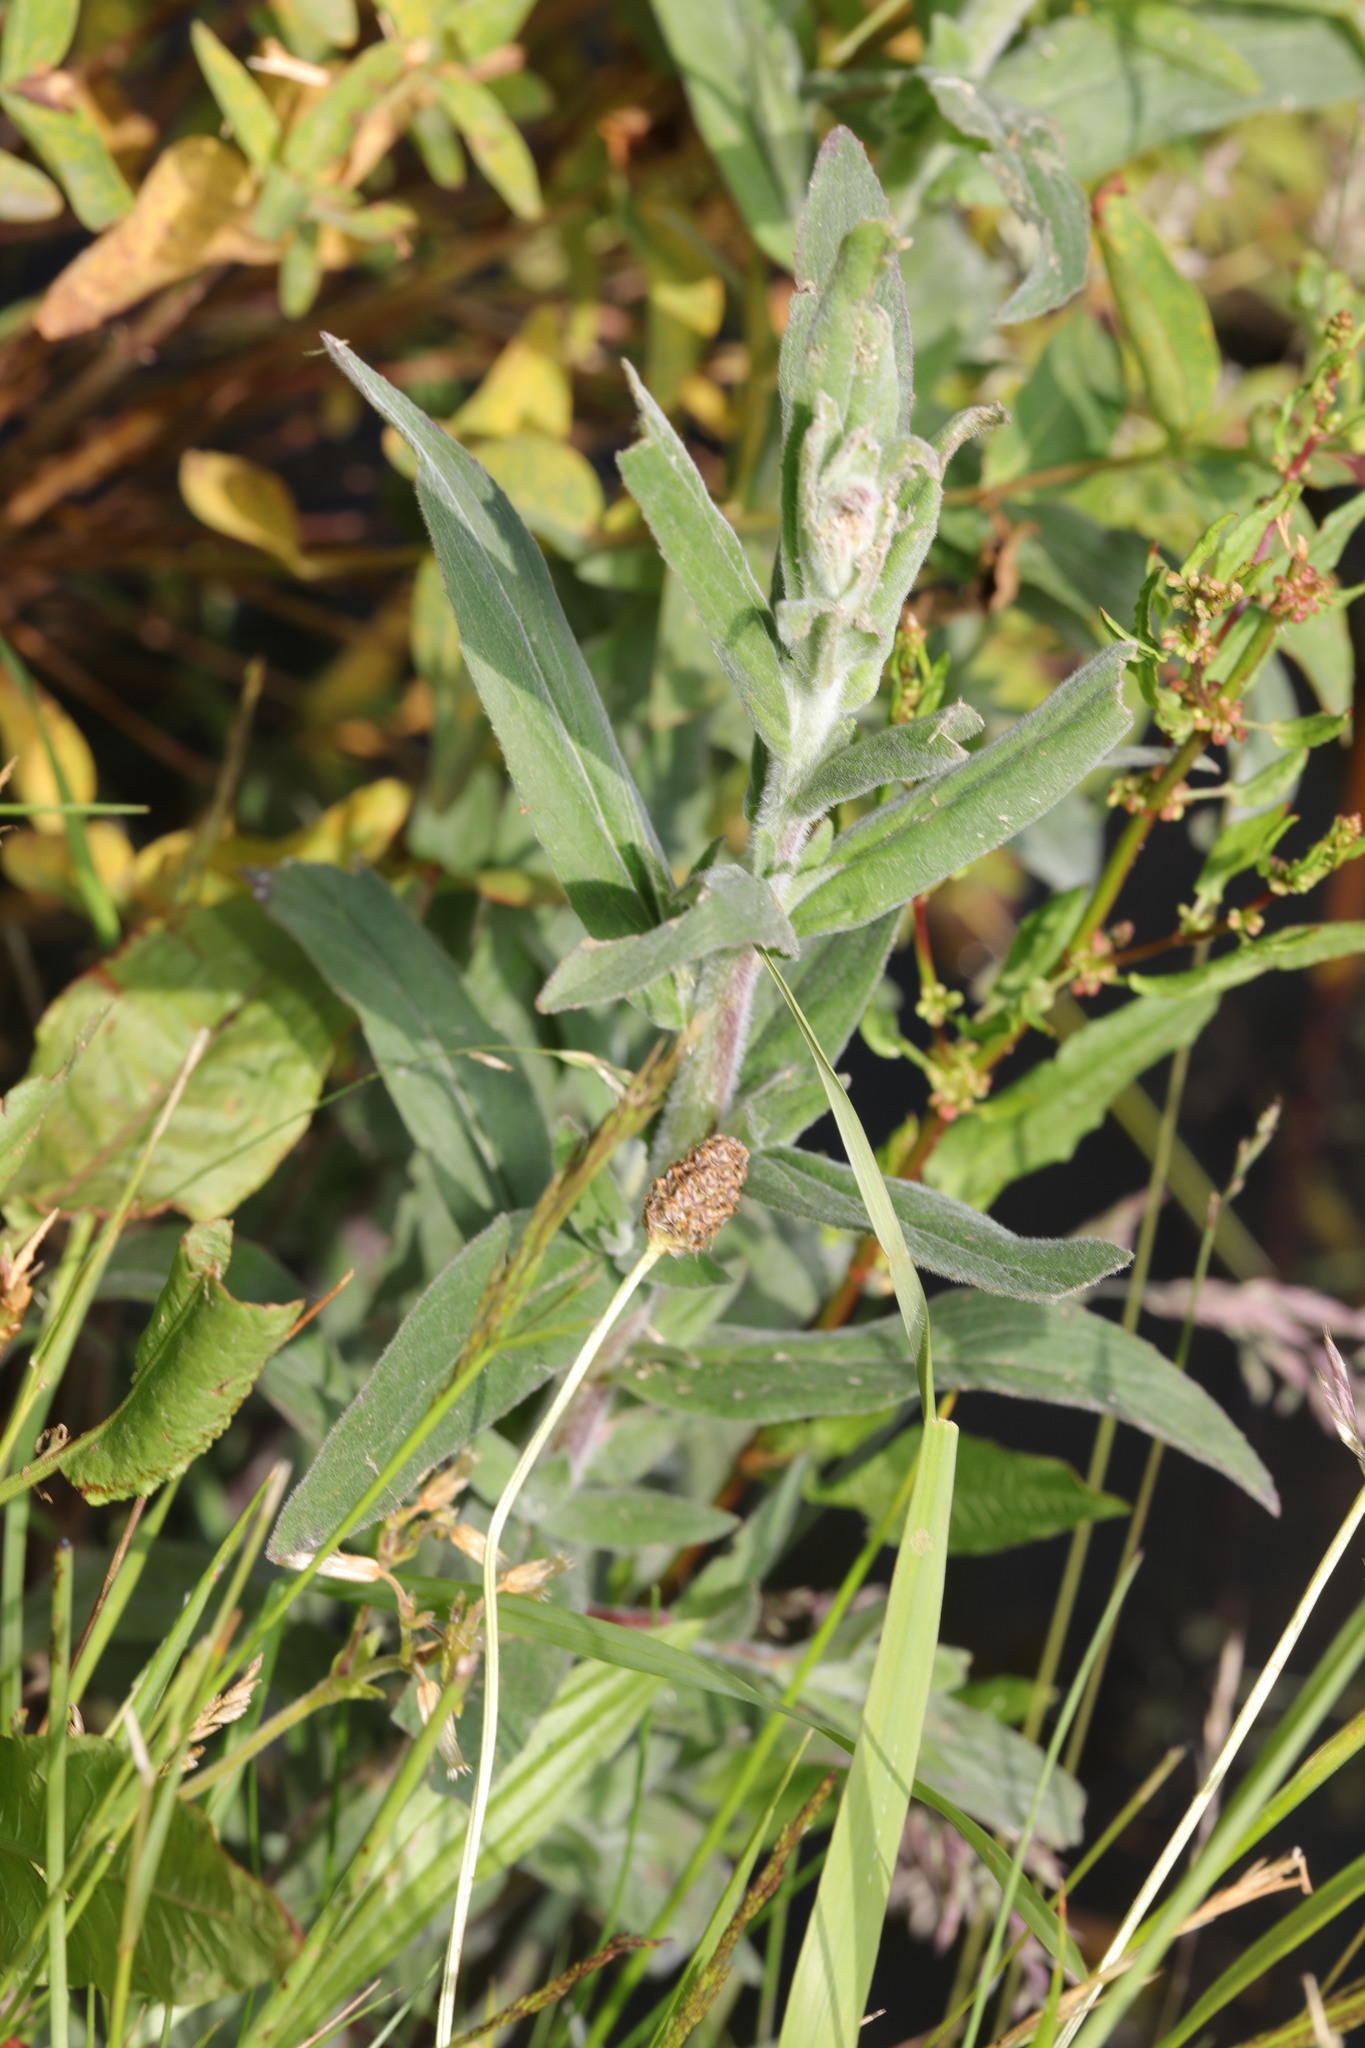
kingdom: Plantae
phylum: Tracheophyta
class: Magnoliopsida
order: Myrtales
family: Onagraceae
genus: Epilobium
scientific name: Epilobium parviflorum
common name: Hoary willowherb
